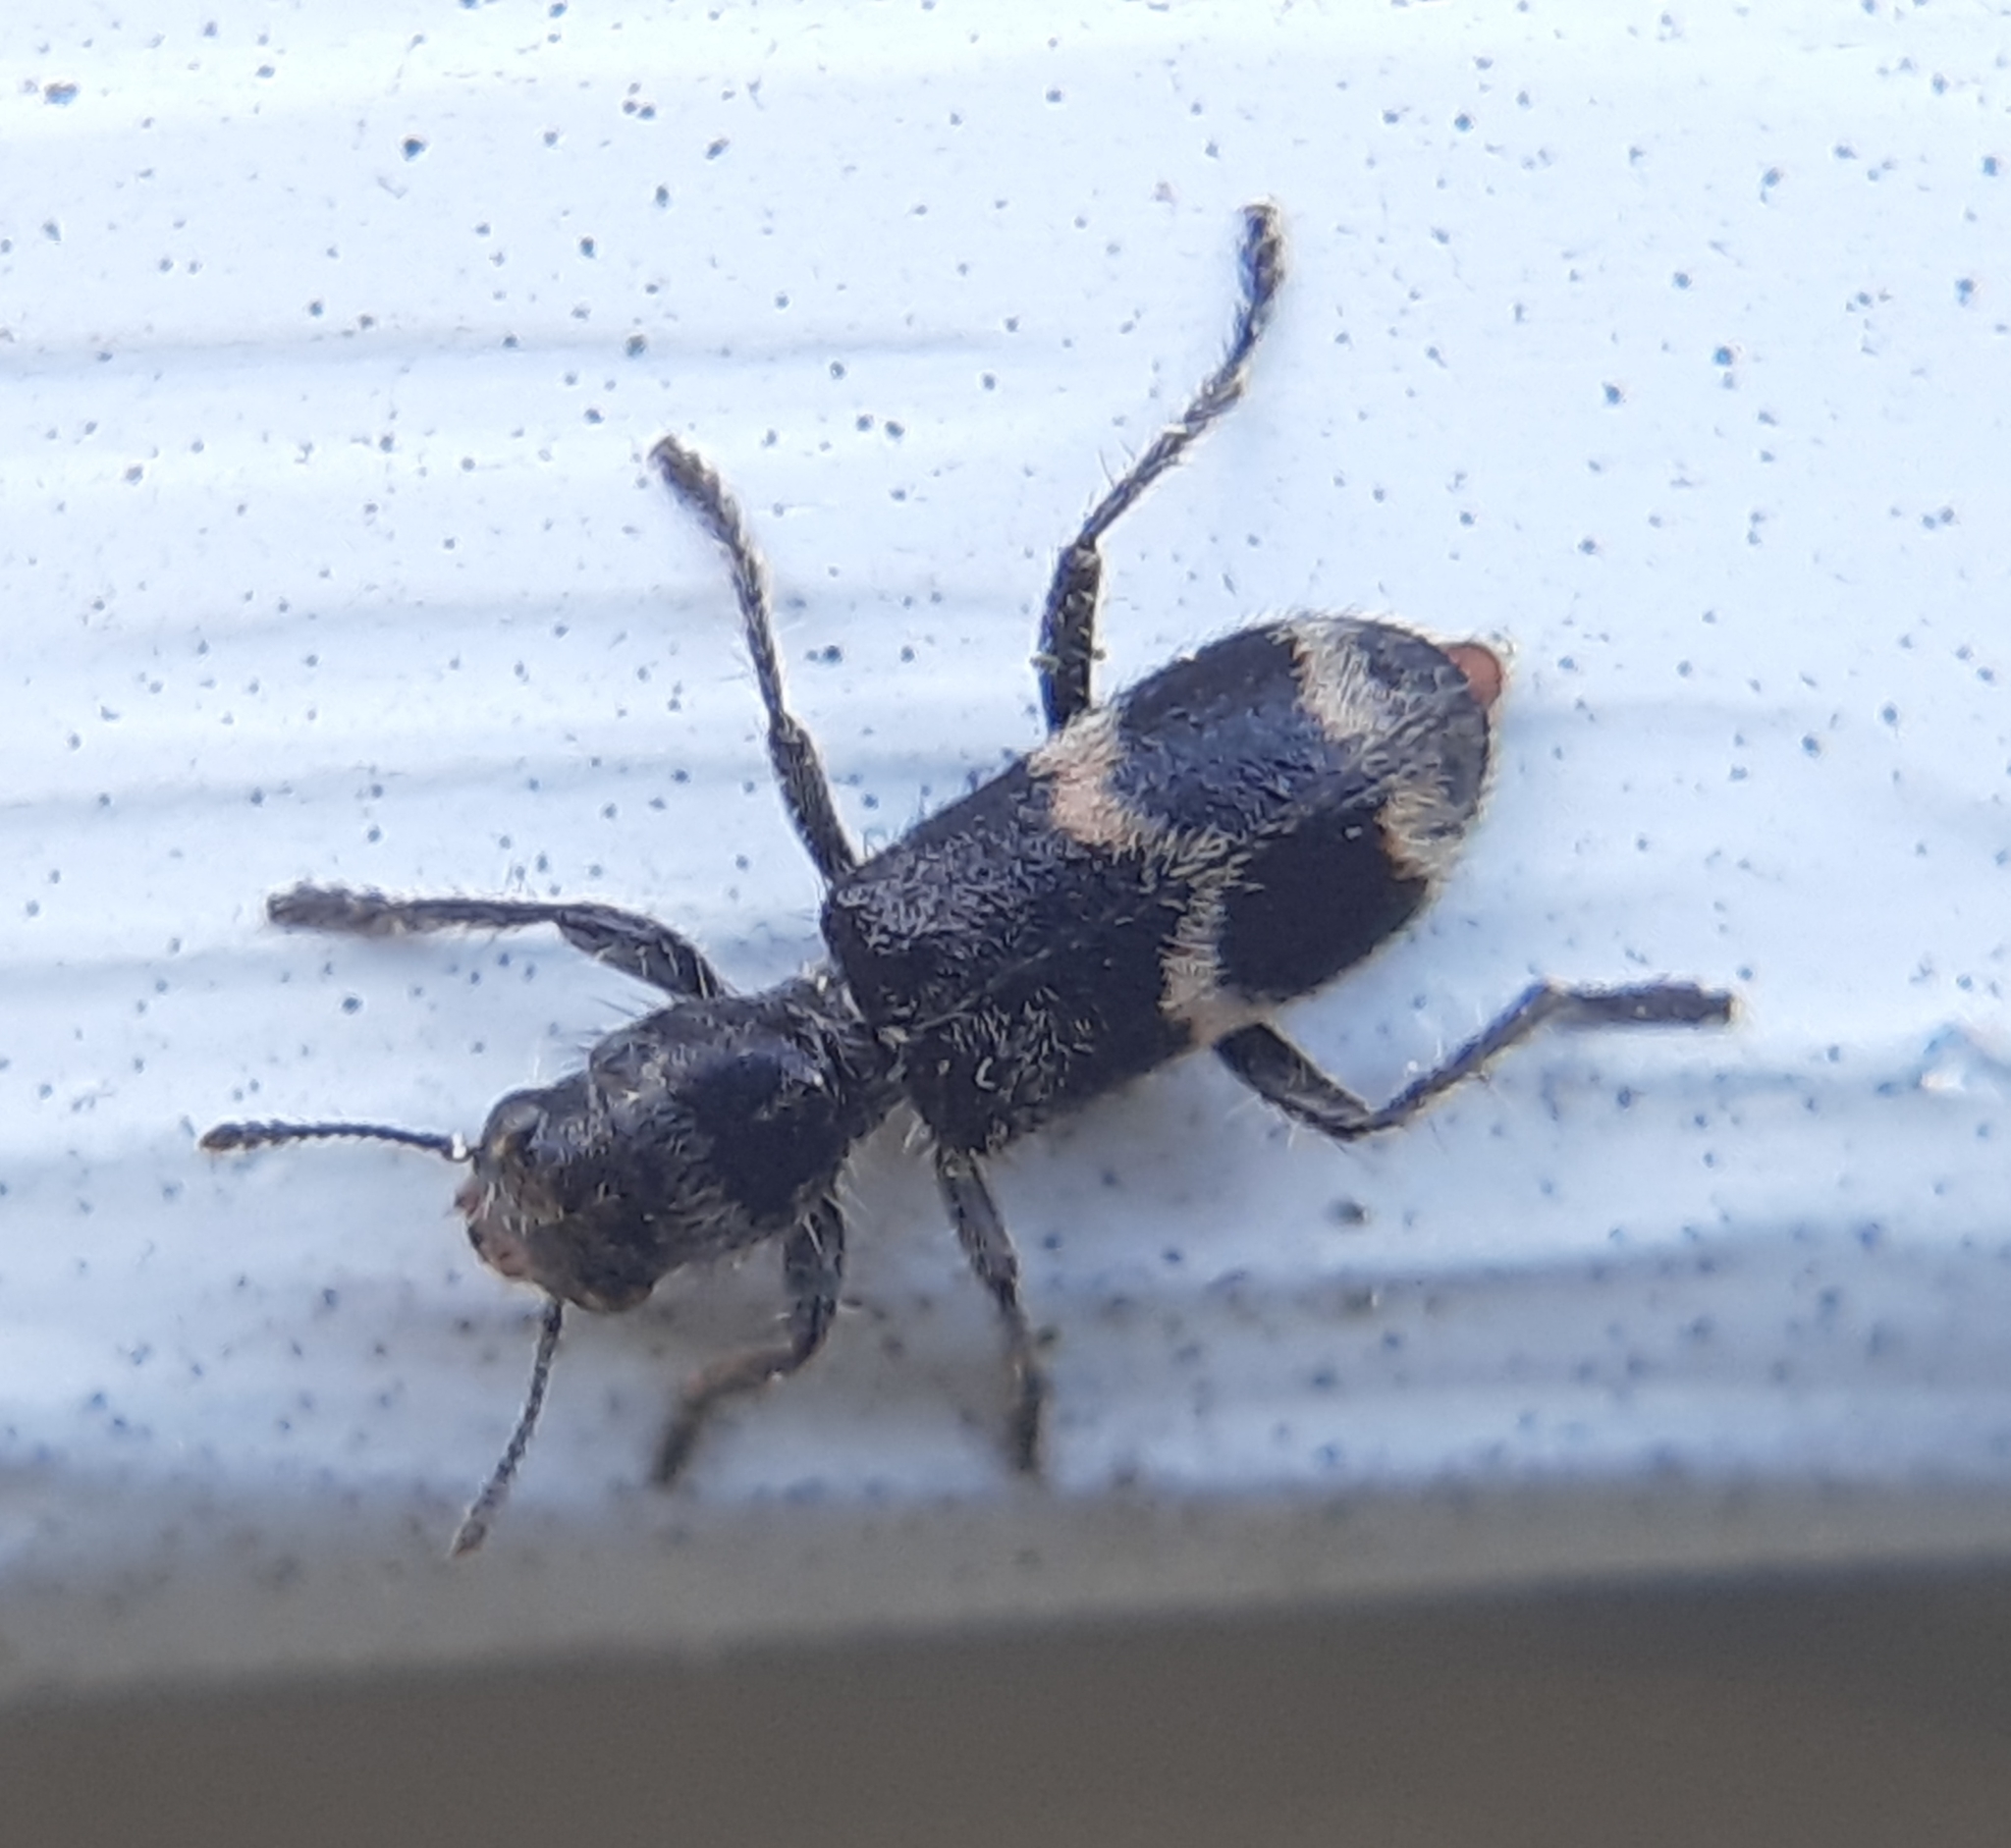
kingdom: Animalia
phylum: Arthropoda
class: Insecta
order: Coleoptera
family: Cleridae
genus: Enoclerus
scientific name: Enoclerus nigripes
